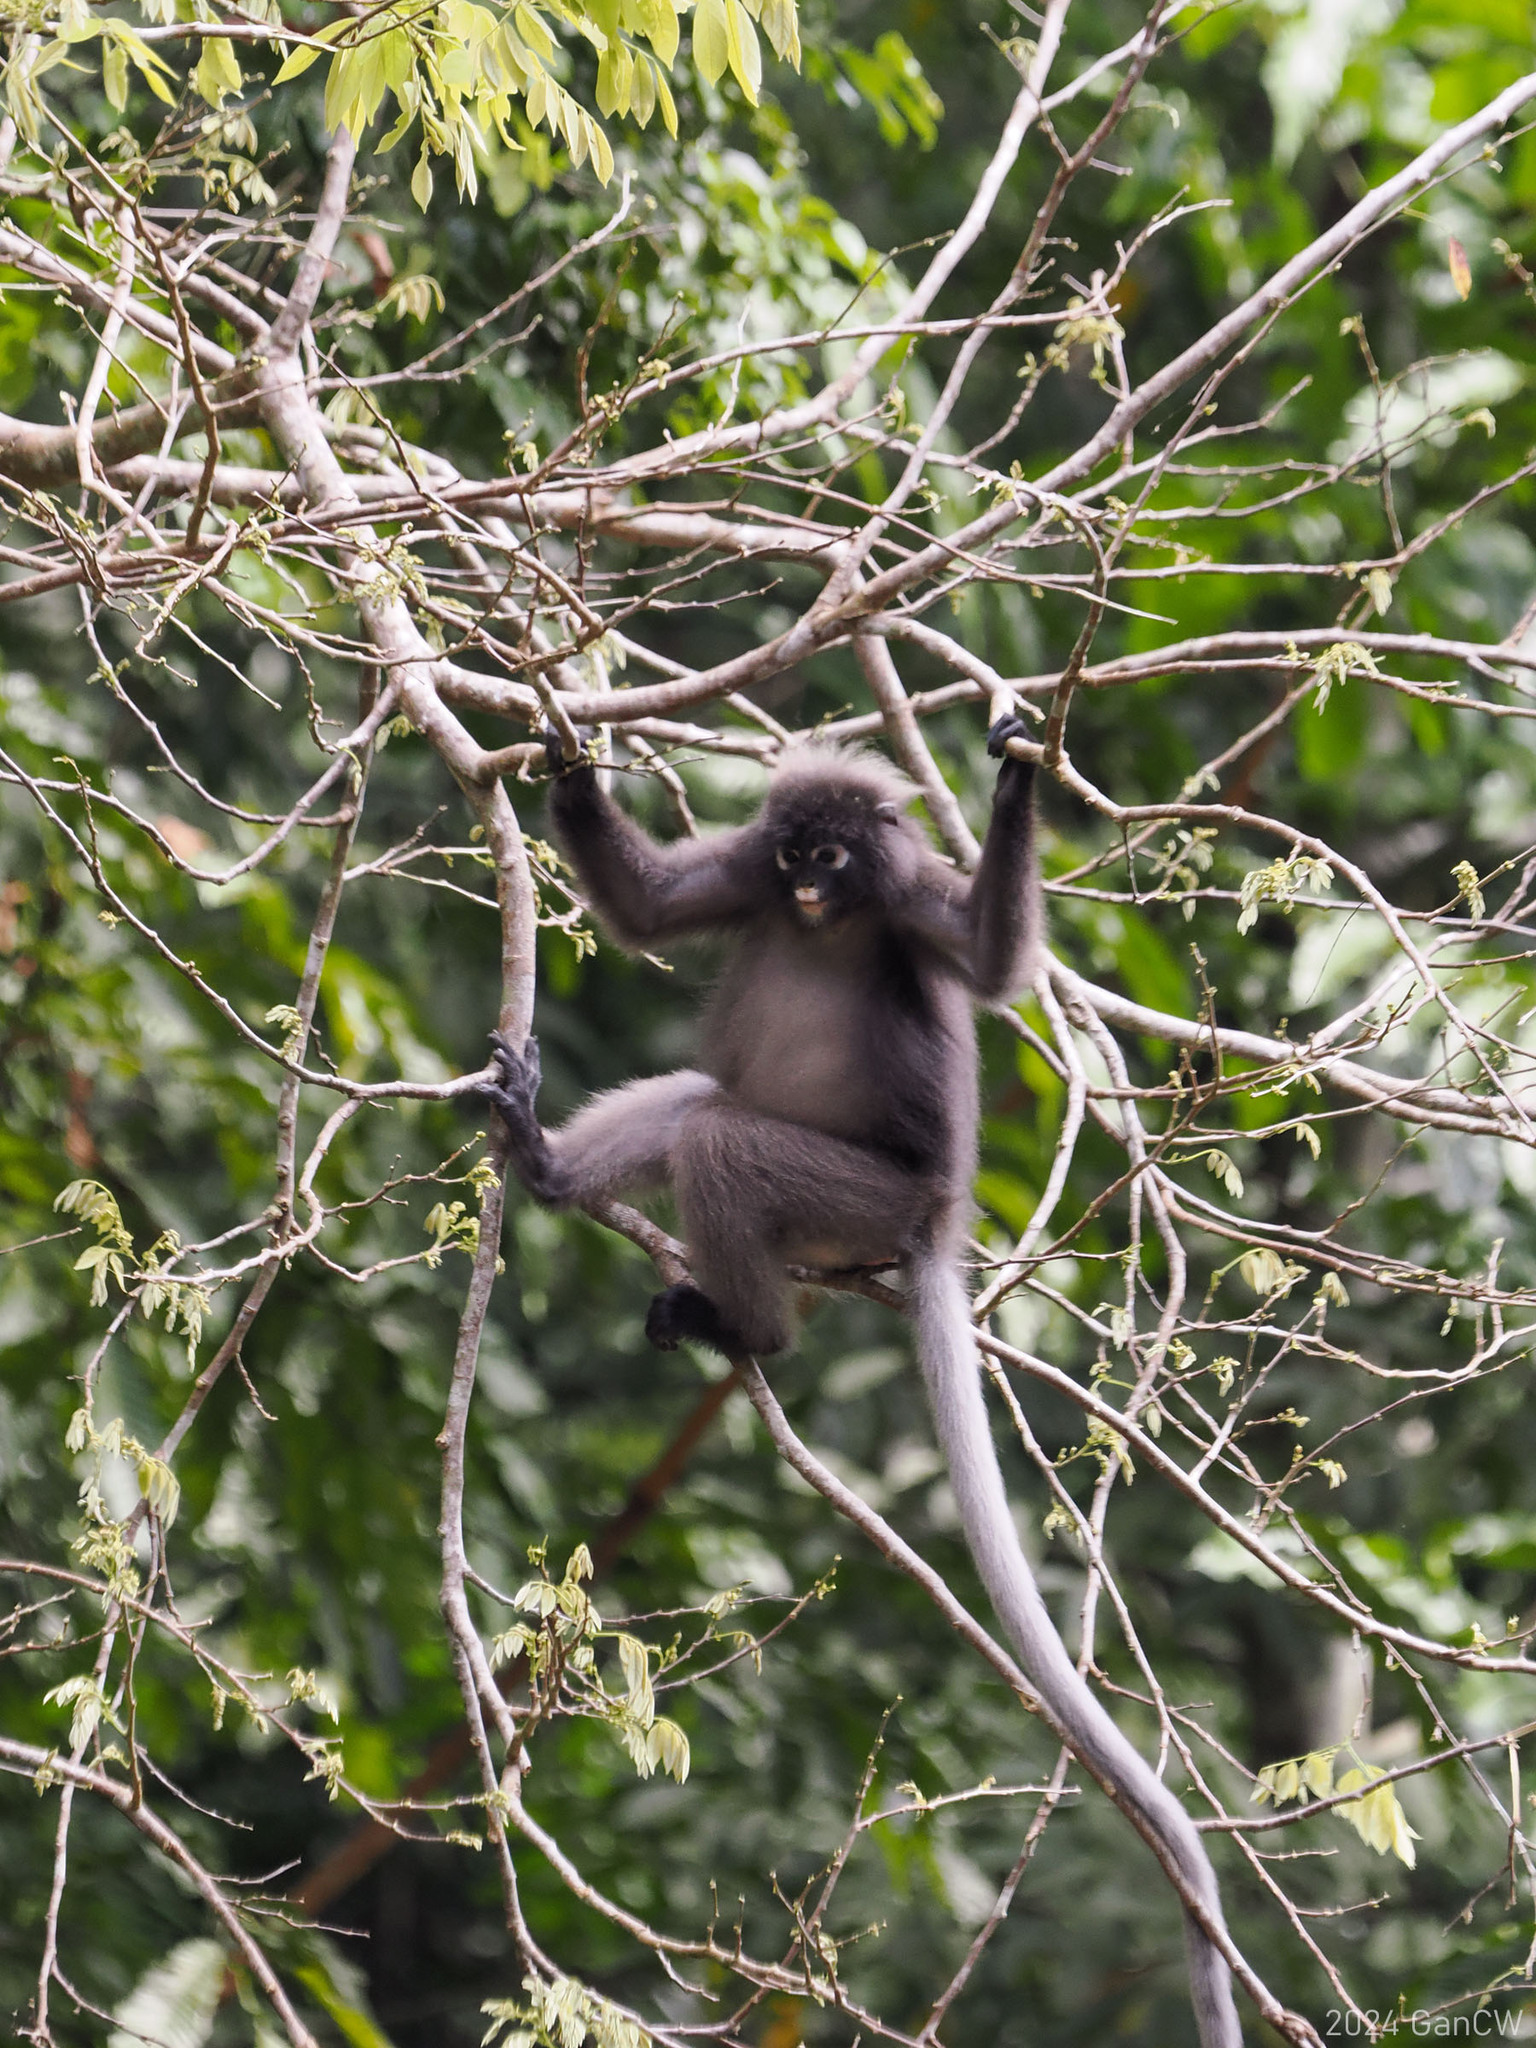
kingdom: Animalia
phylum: Chordata
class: Mammalia
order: Primates
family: Cercopithecidae
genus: Trachypithecus
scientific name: Trachypithecus obscurus
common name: Dusky leaf-monkey
